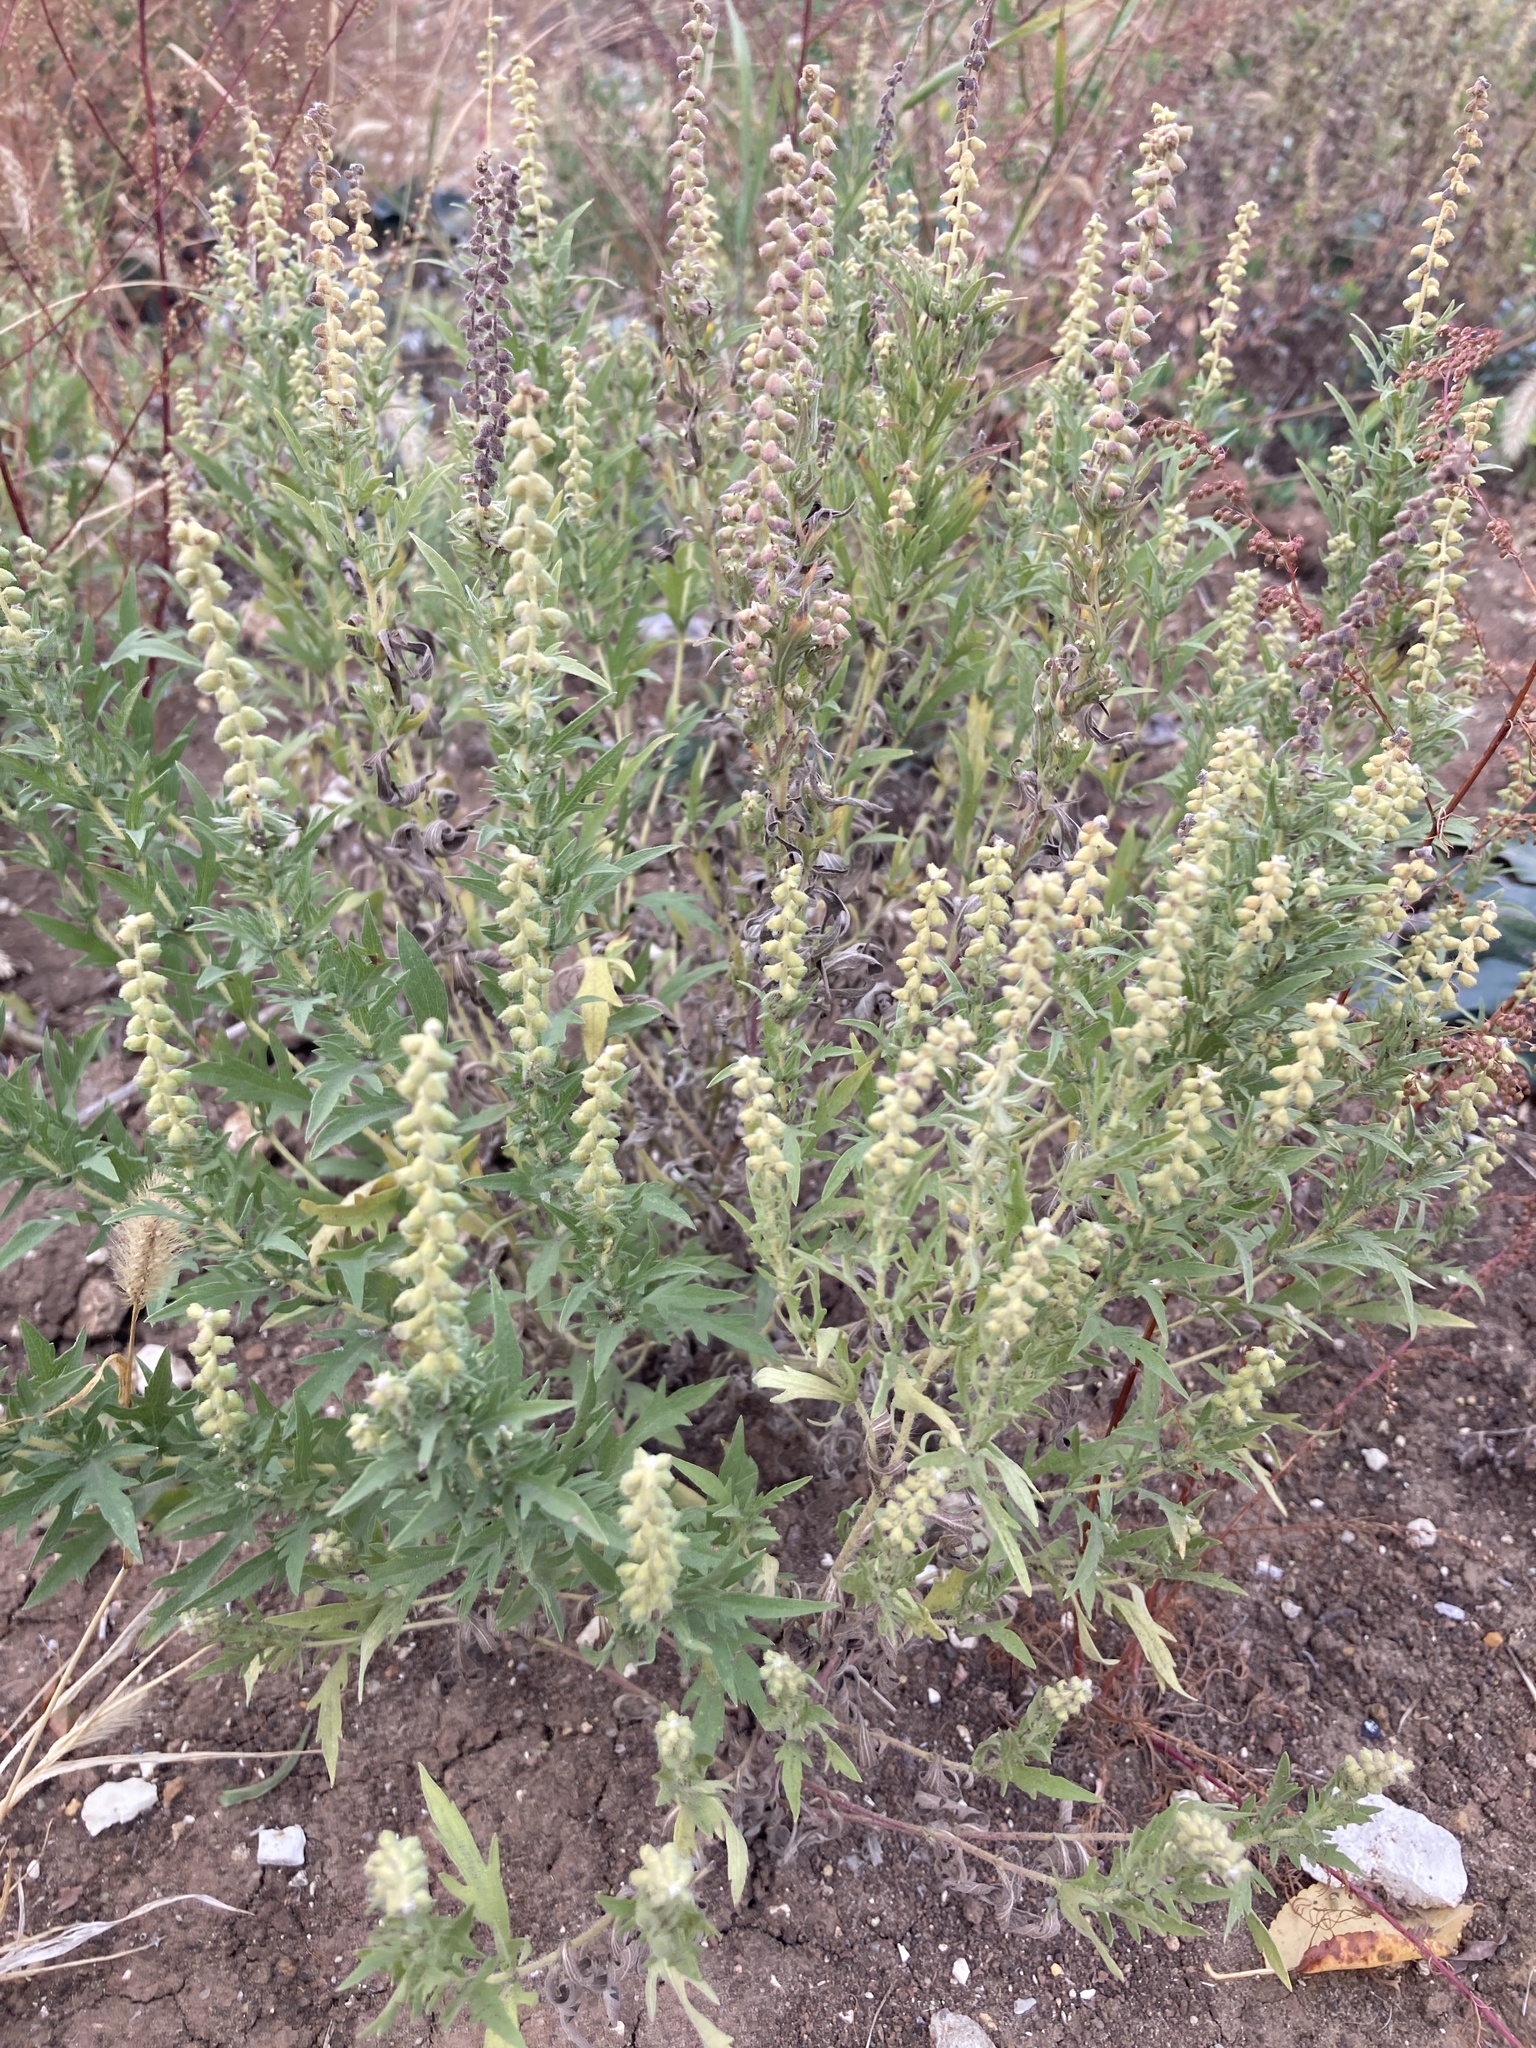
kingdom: Plantae
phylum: Tracheophyta
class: Magnoliopsida
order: Asterales
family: Asteraceae
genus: Ambrosia
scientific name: Ambrosia psilostachya
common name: Perennial ragweed
